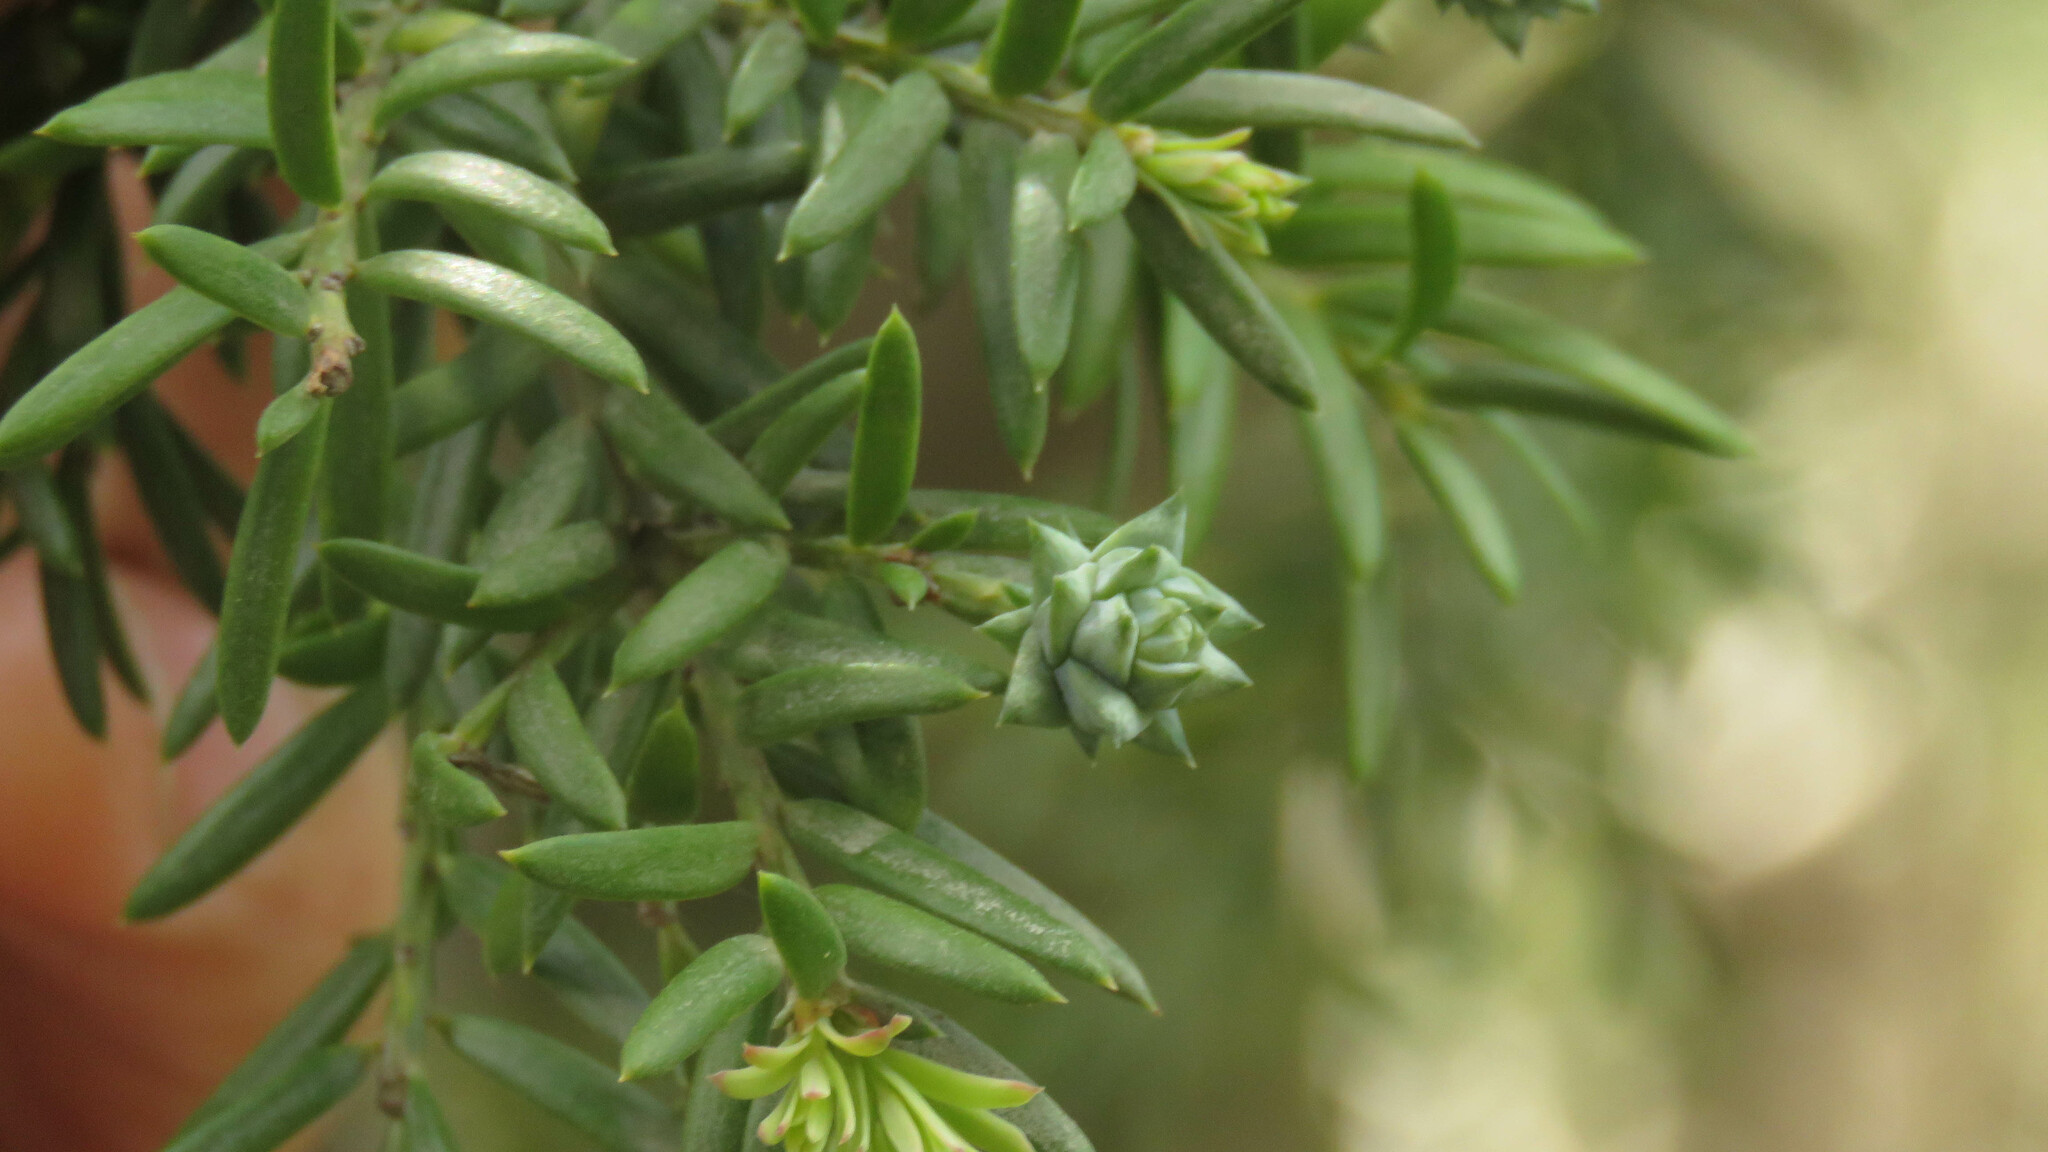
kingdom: Plantae
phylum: Tracheophyta
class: Pinopsida
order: Pinales
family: Podocarpaceae
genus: Saxegothaea
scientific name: Saxegothaea conspicua
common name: Prince albert's yew
